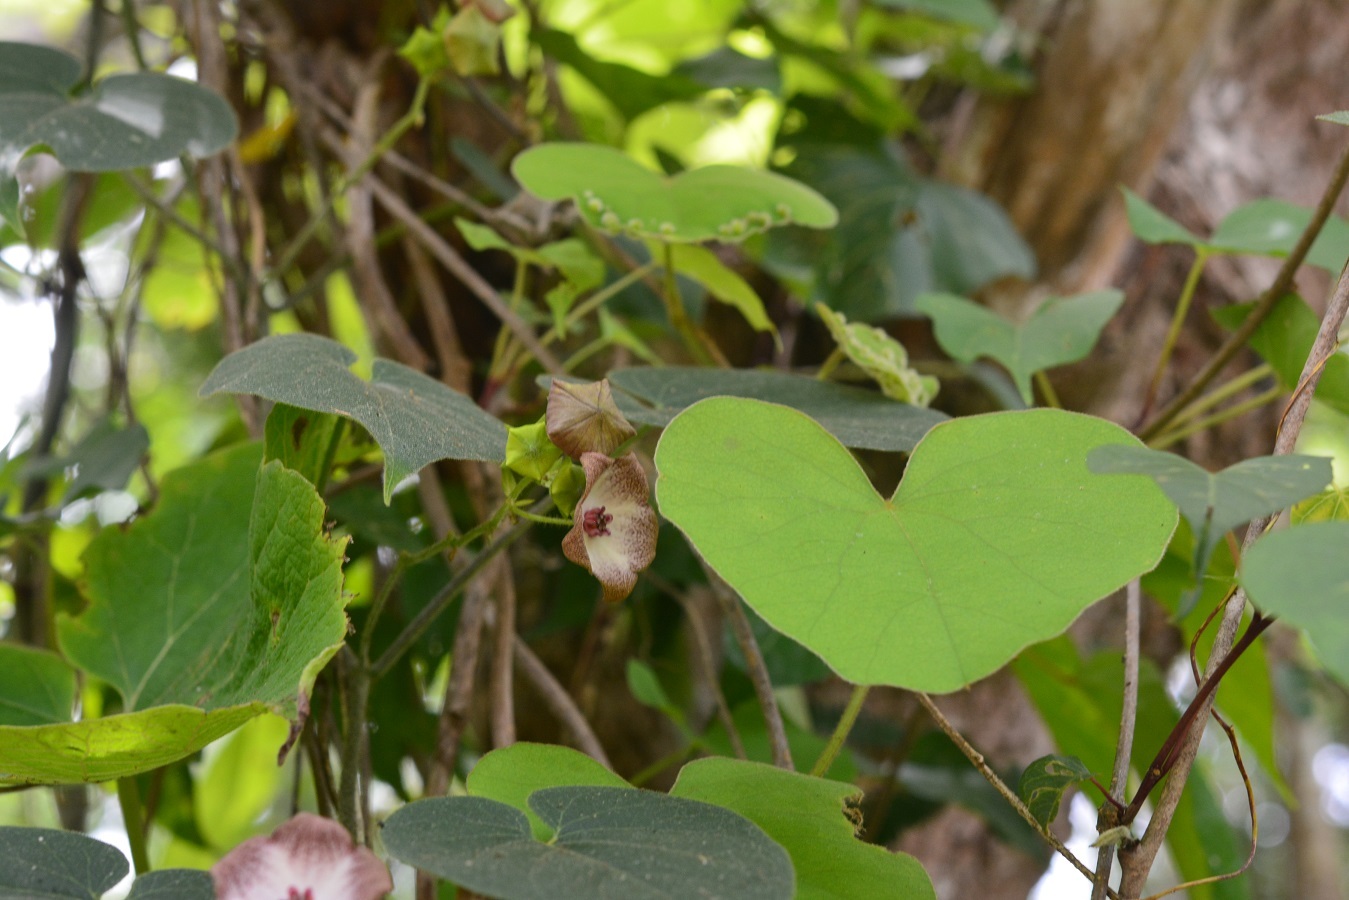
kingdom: Plantae
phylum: Tracheophyta
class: Magnoliopsida
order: Gentianales
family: Apocynaceae
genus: Polystemma
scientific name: Polystemma guatemalense
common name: Arborescente rattan
